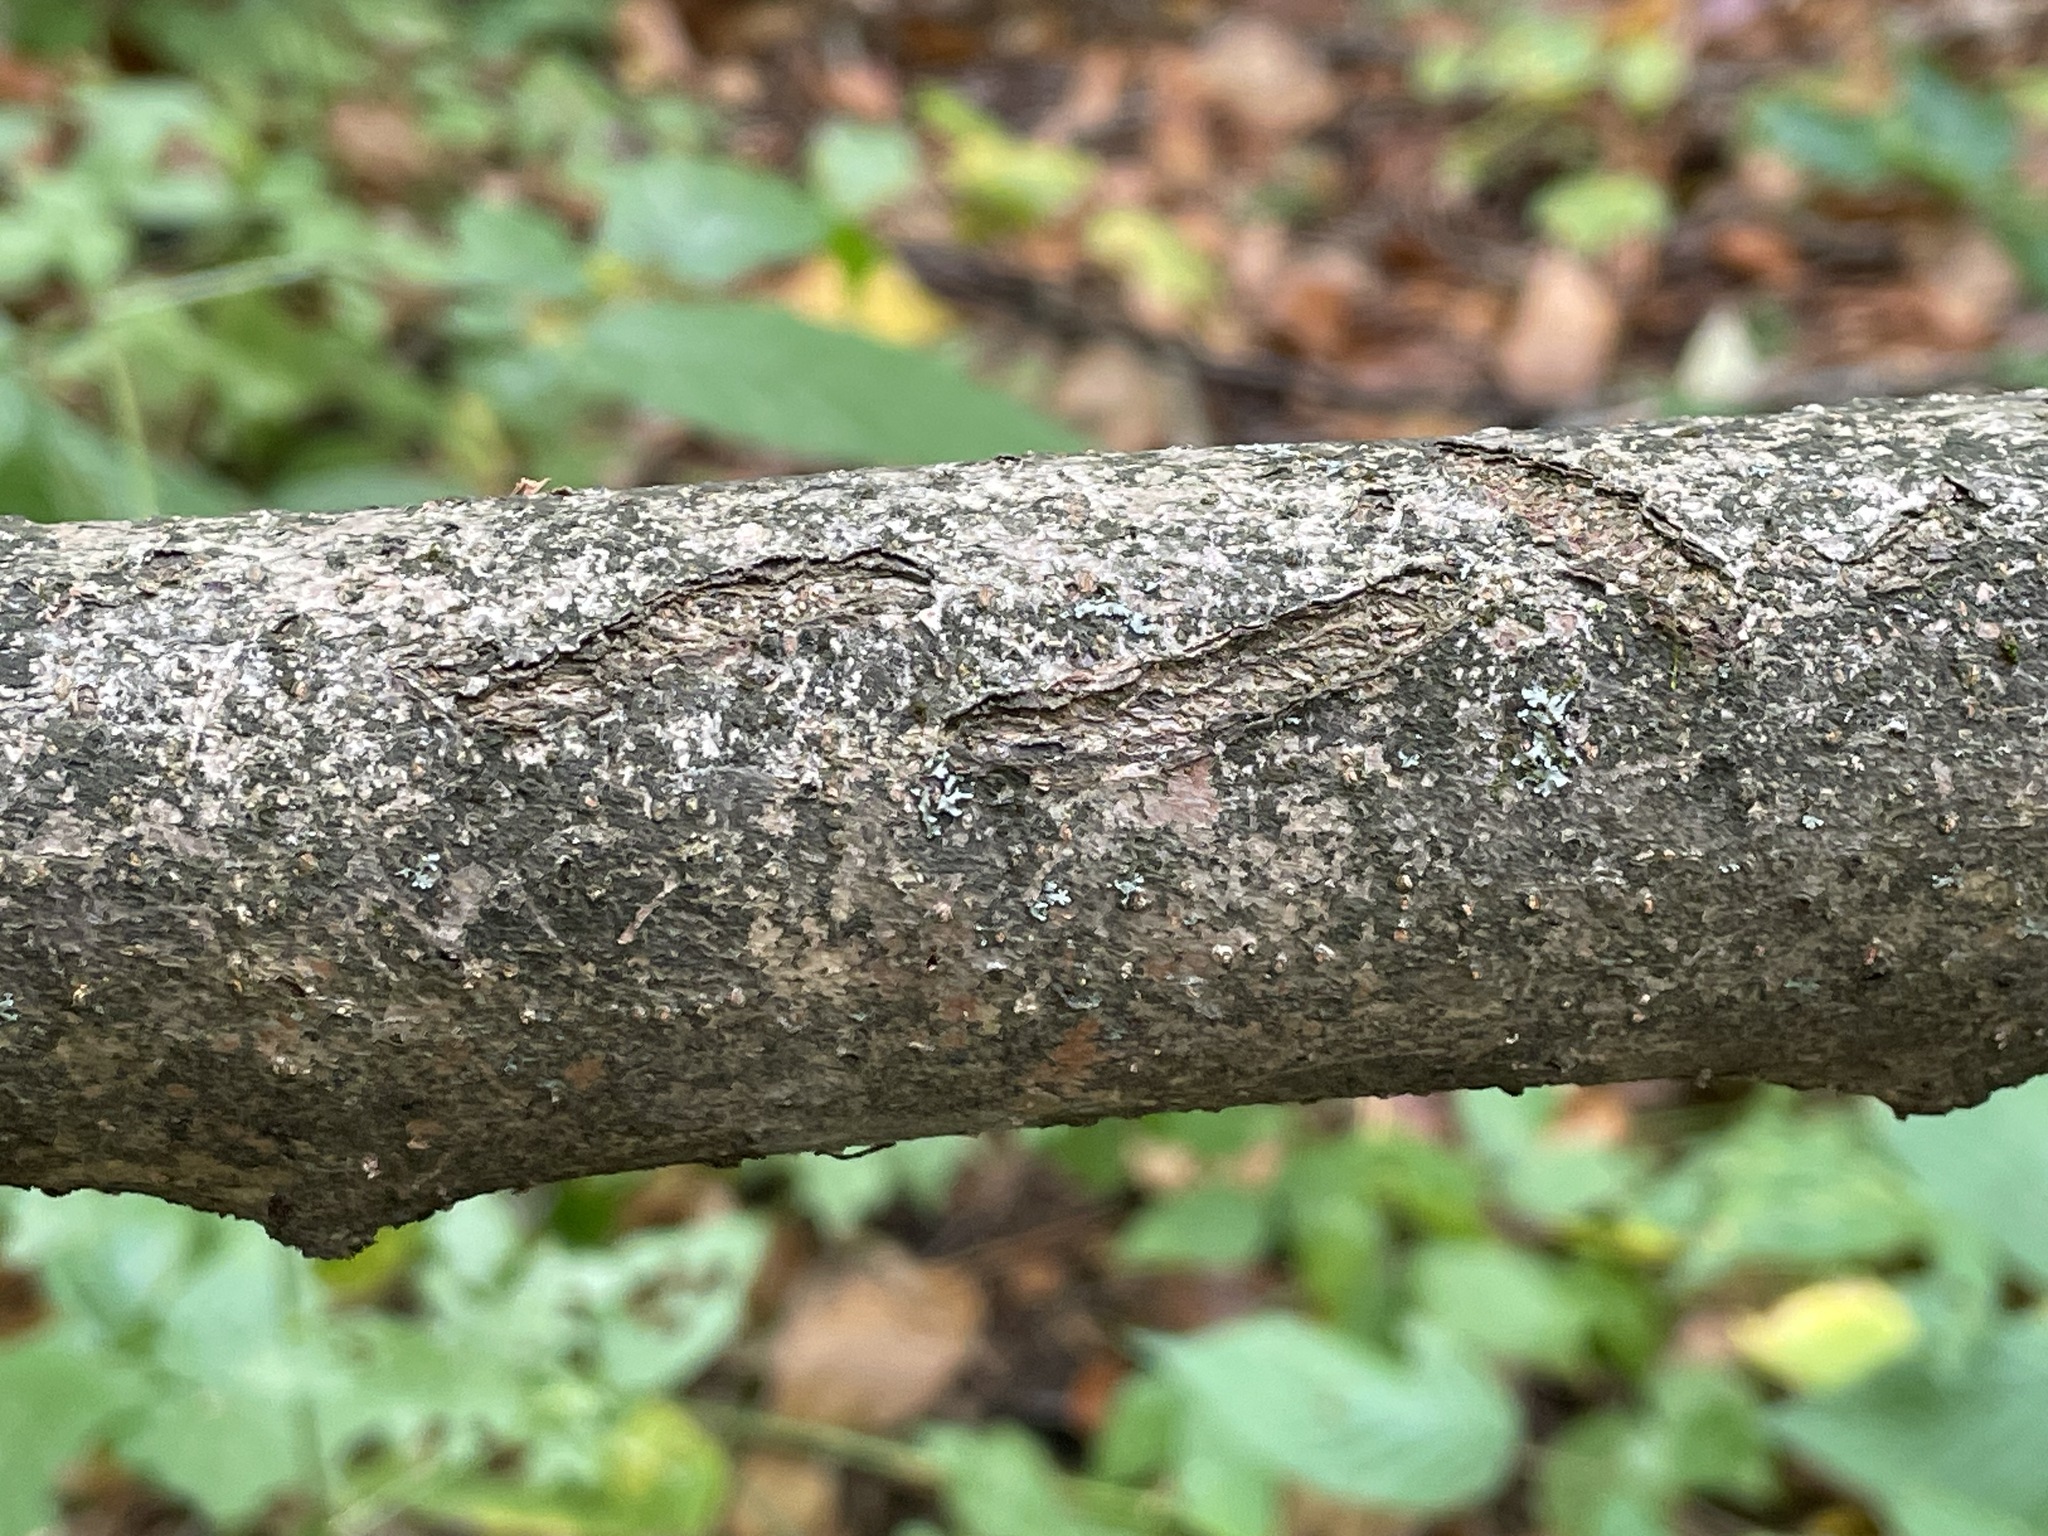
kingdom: Plantae
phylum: Tracheophyta
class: Magnoliopsida
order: Saxifragales
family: Hamamelidaceae
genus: Hamamelis
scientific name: Hamamelis virginiana
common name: Witch-hazel
